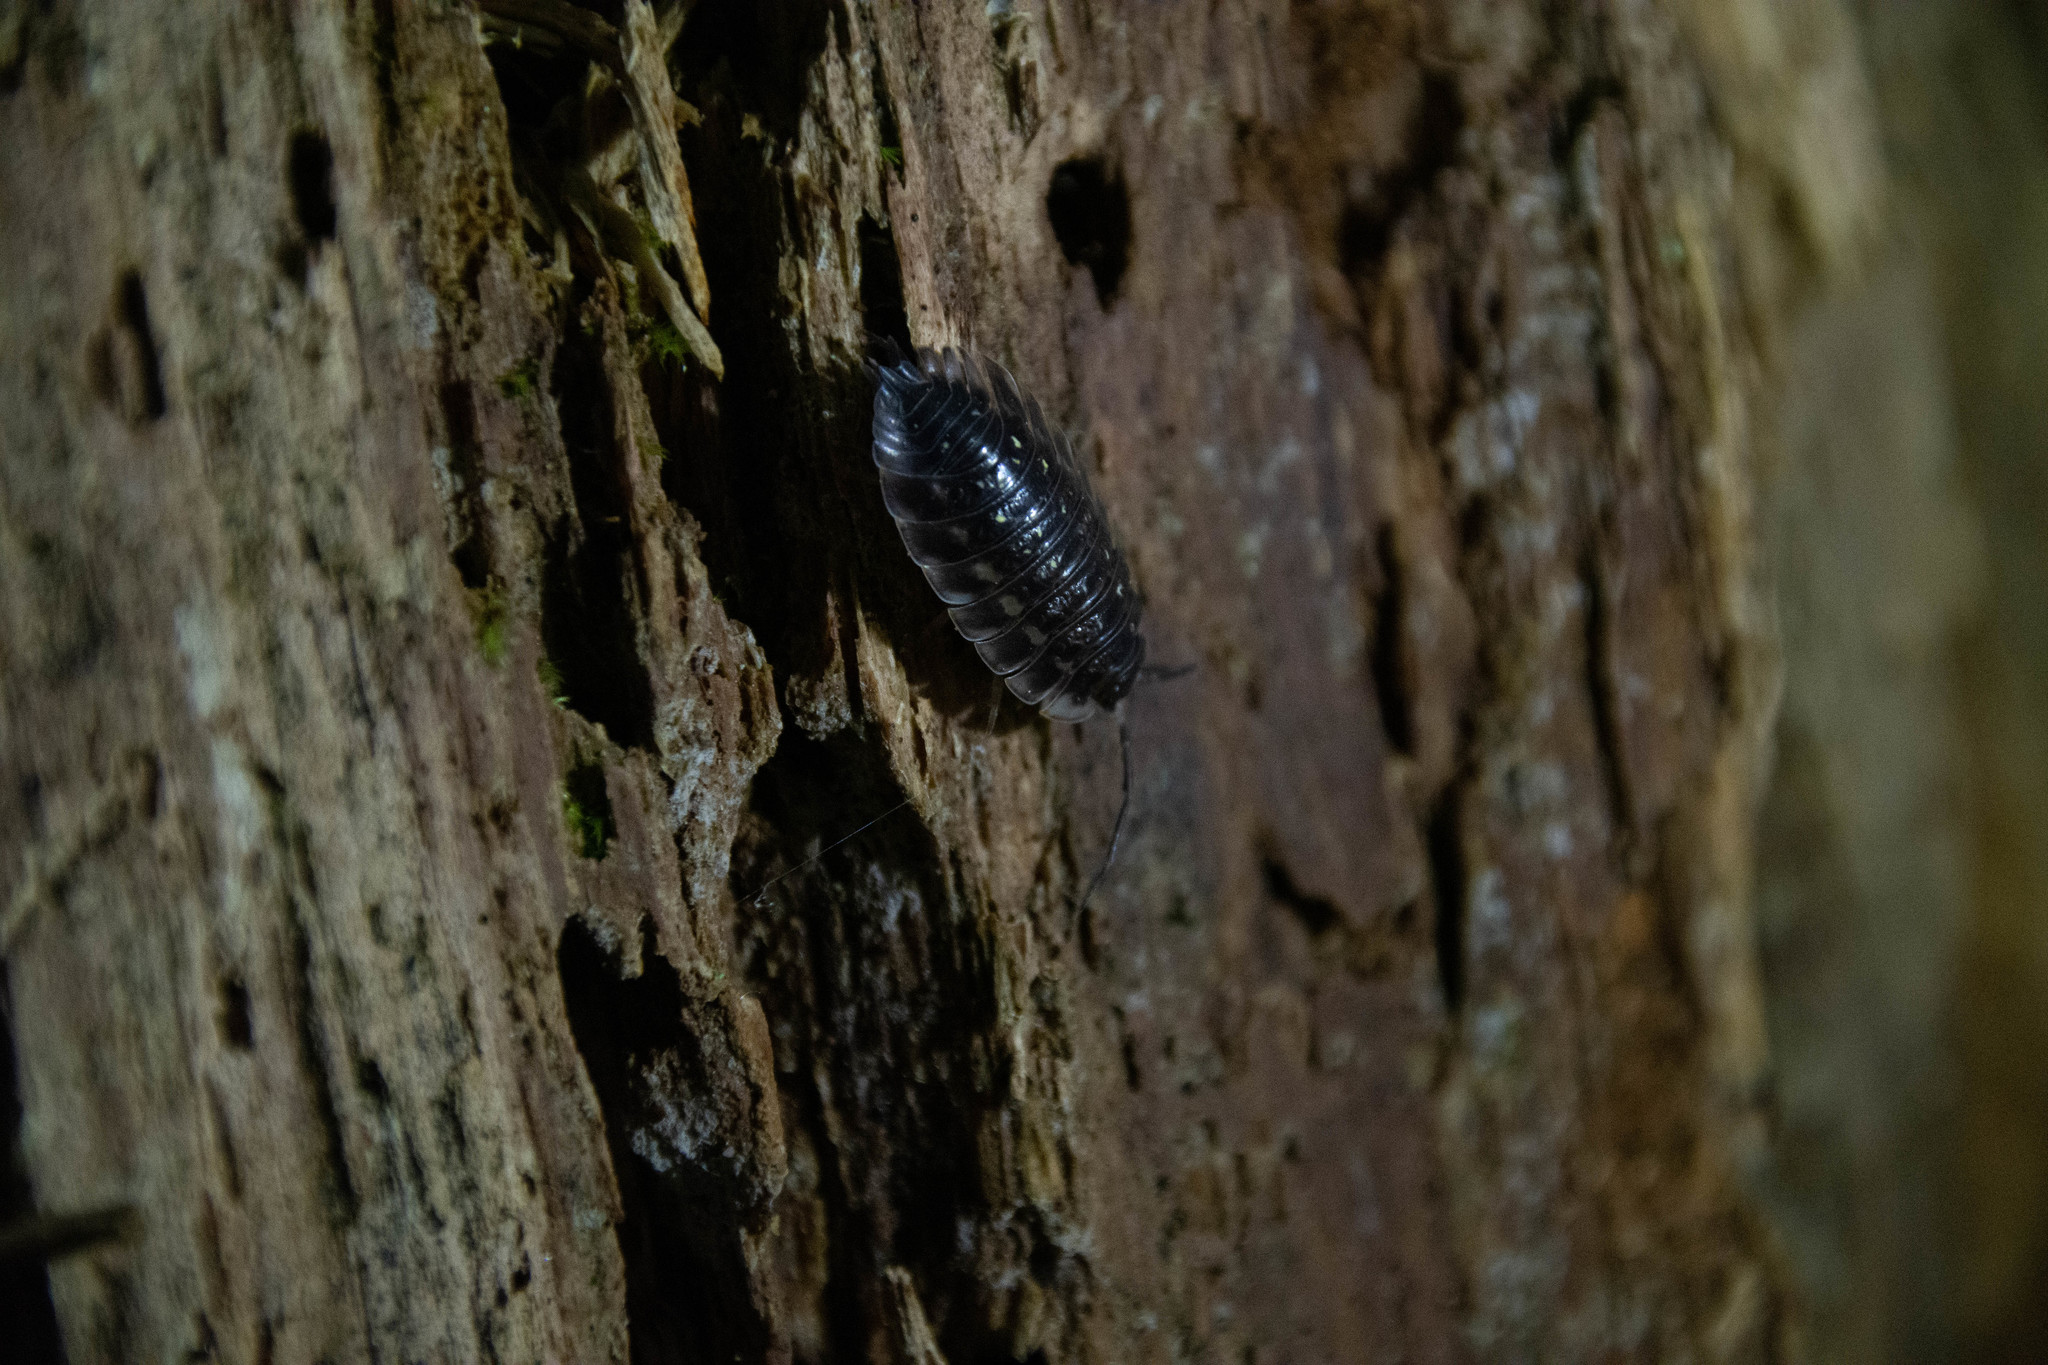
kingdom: Animalia
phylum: Arthropoda
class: Malacostraca
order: Isopoda
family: Oniscidae
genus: Oniscus
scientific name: Oniscus asellus
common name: Common shiny woodlouse
